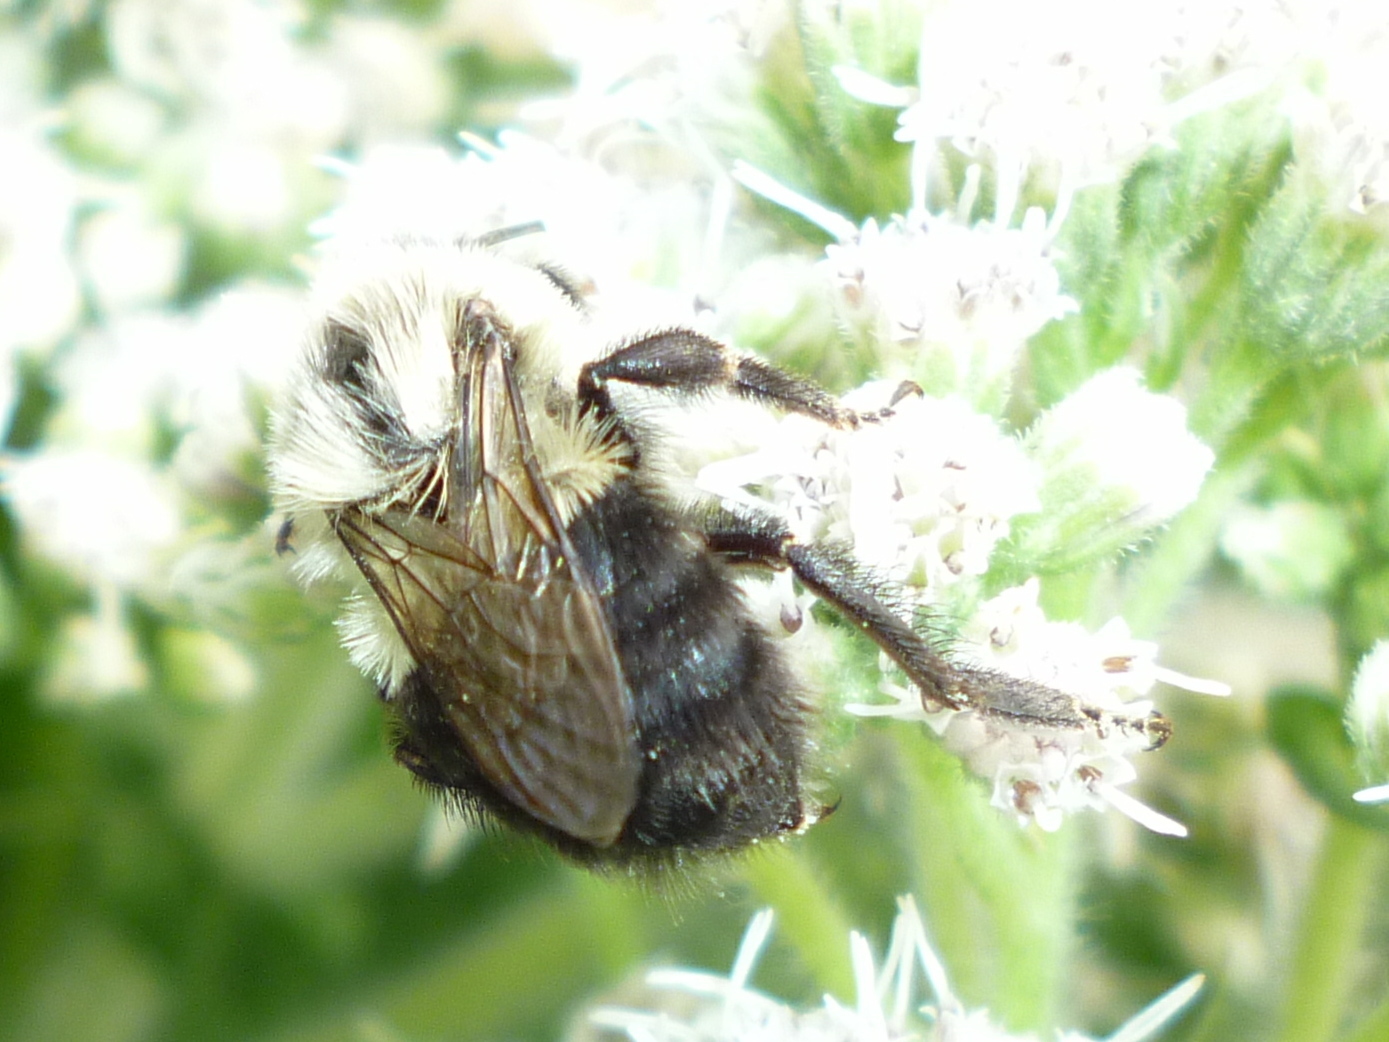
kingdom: Animalia
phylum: Arthropoda
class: Insecta
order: Hymenoptera
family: Apidae
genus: Bombus
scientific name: Bombus impatiens
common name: Common eastern bumble bee
